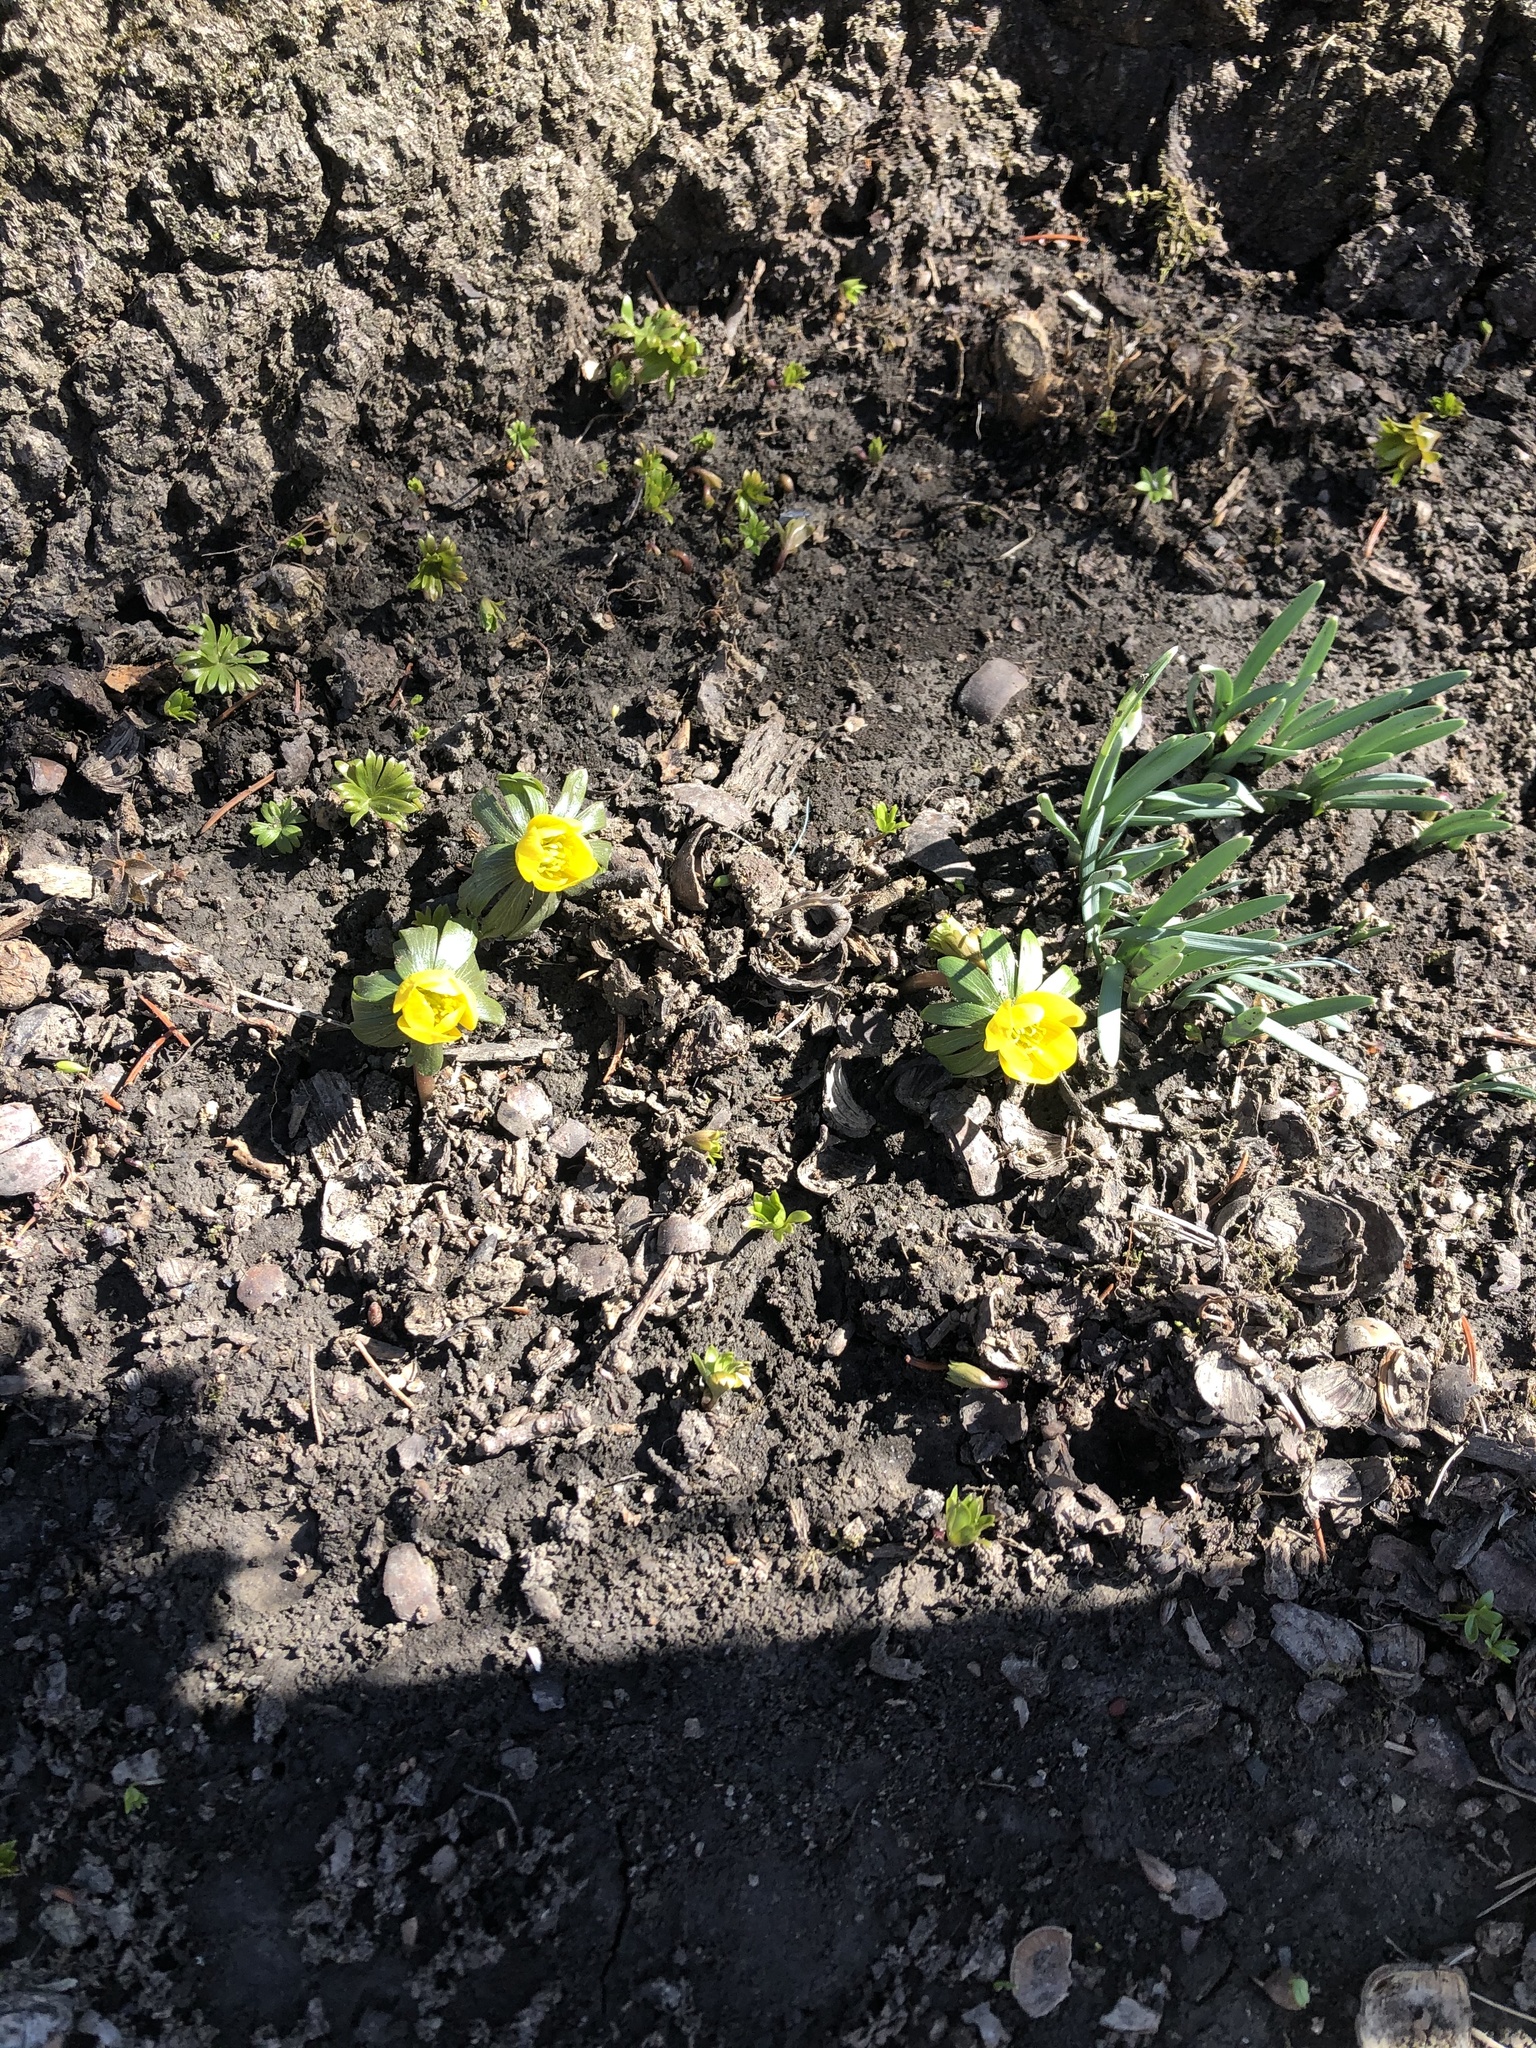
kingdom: Plantae
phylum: Tracheophyta
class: Magnoliopsida
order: Ranunculales
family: Ranunculaceae
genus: Eranthis
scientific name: Eranthis hyemalis
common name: Winter aconite
